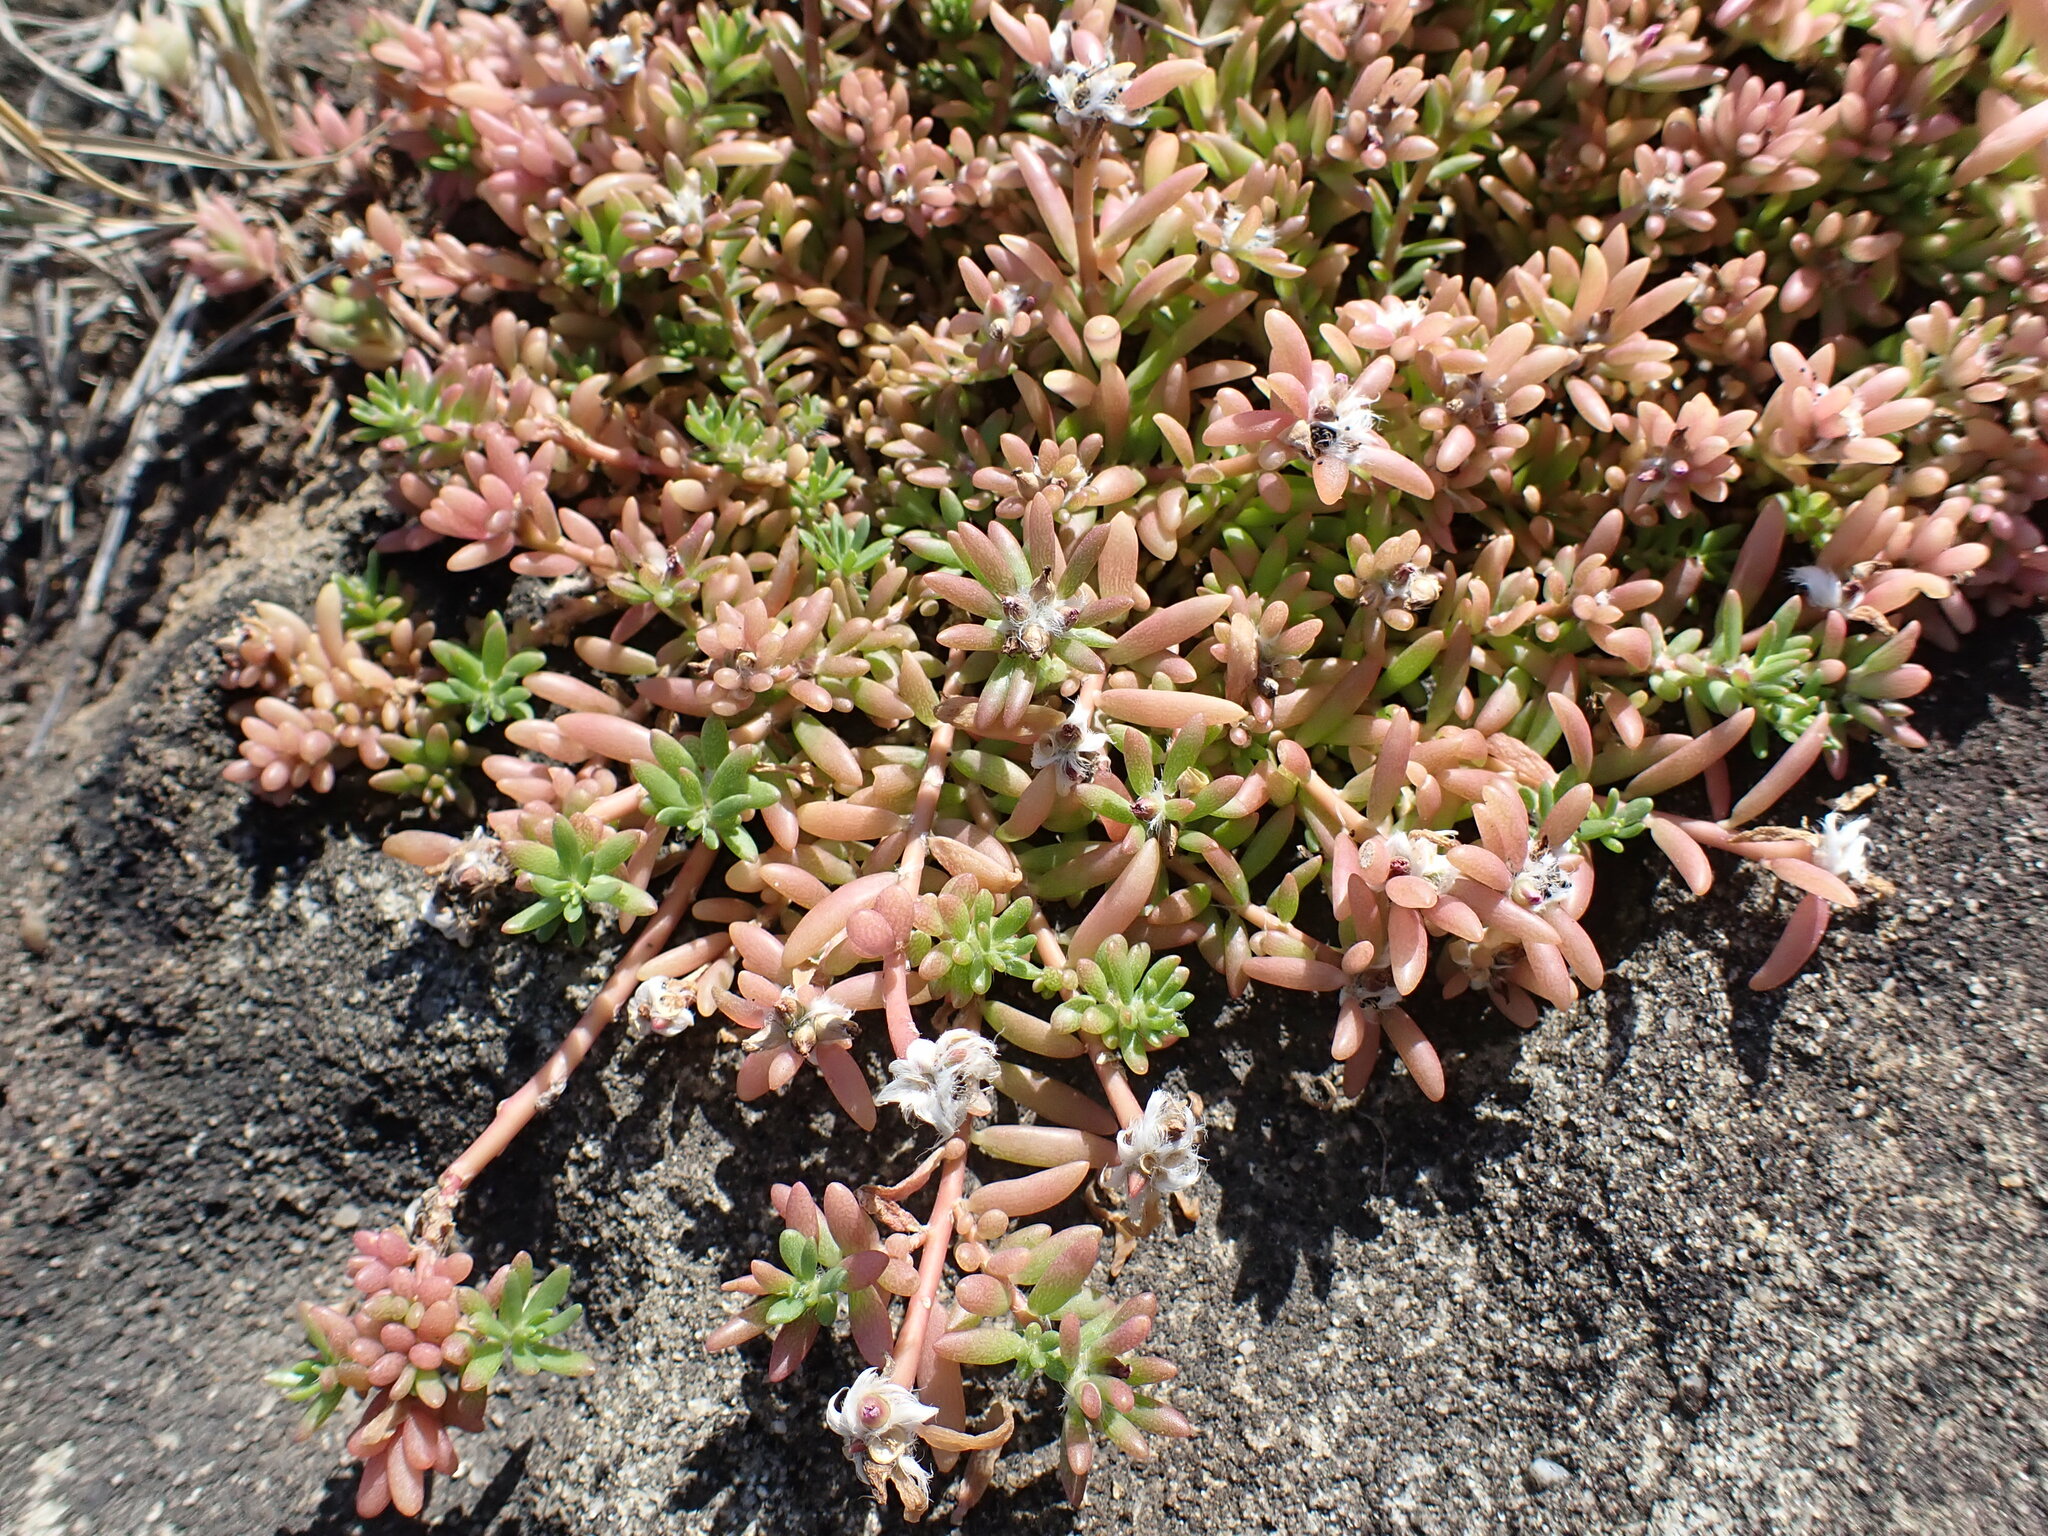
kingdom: Plantae
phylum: Tracheophyta
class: Magnoliopsida
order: Caryophyllales
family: Portulacaceae
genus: Portulaca
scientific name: Portulaca pilosa
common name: Kiss me quick
